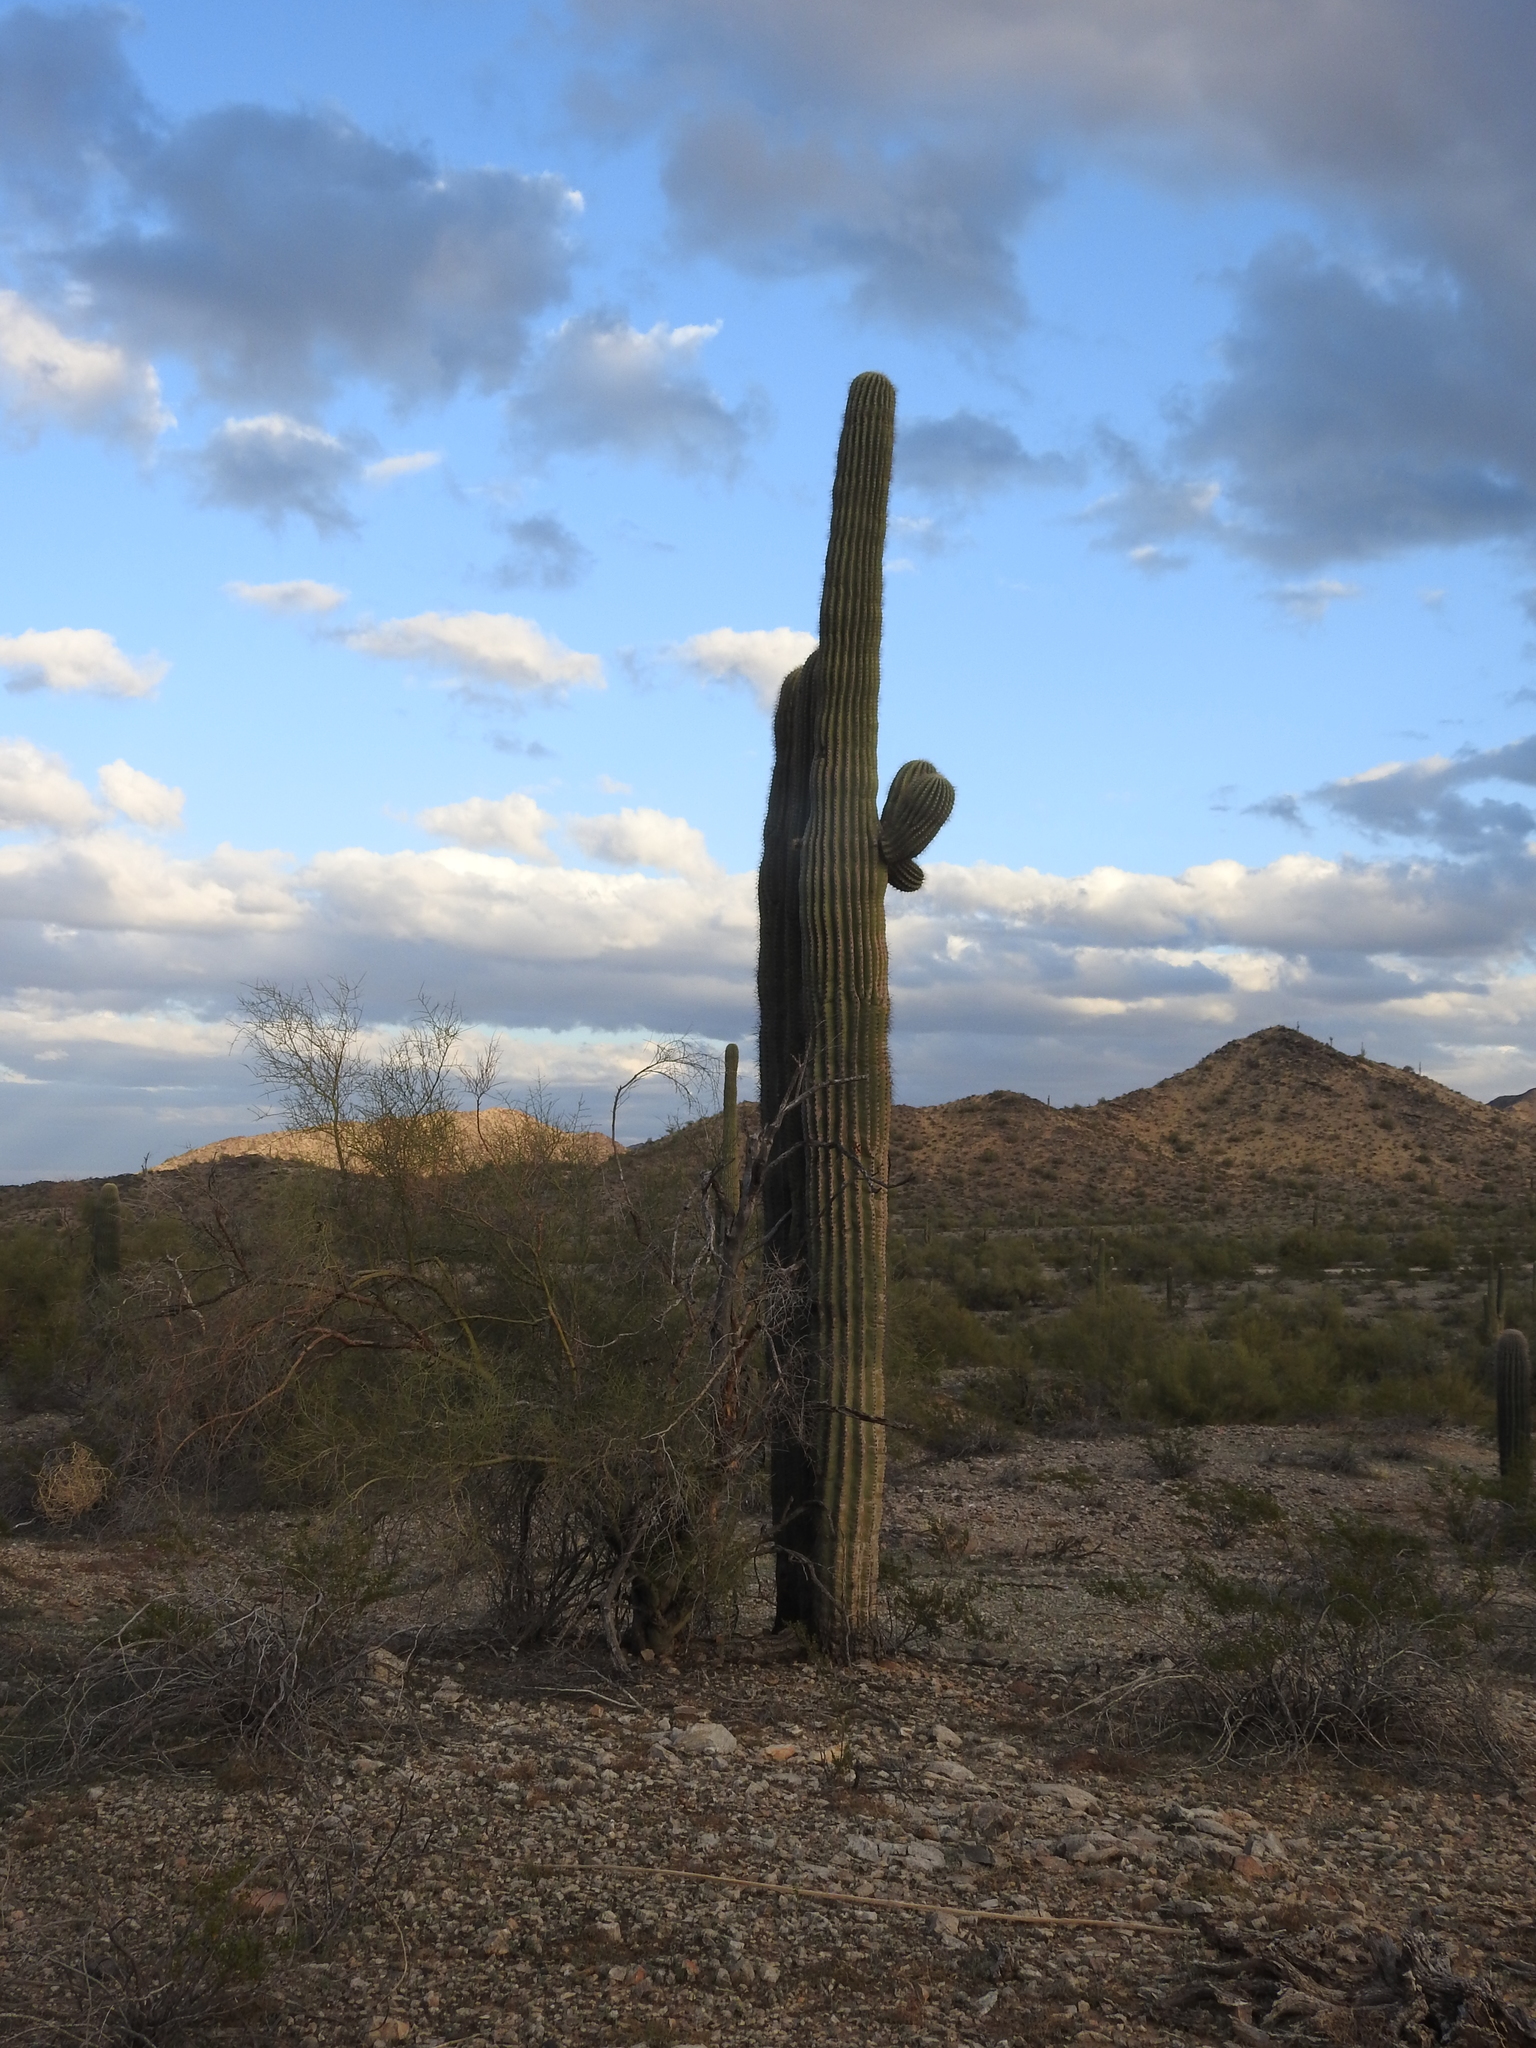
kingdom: Plantae
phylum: Tracheophyta
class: Magnoliopsida
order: Caryophyllales
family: Cactaceae
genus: Carnegiea
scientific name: Carnegiea gigantea
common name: Saguaro
